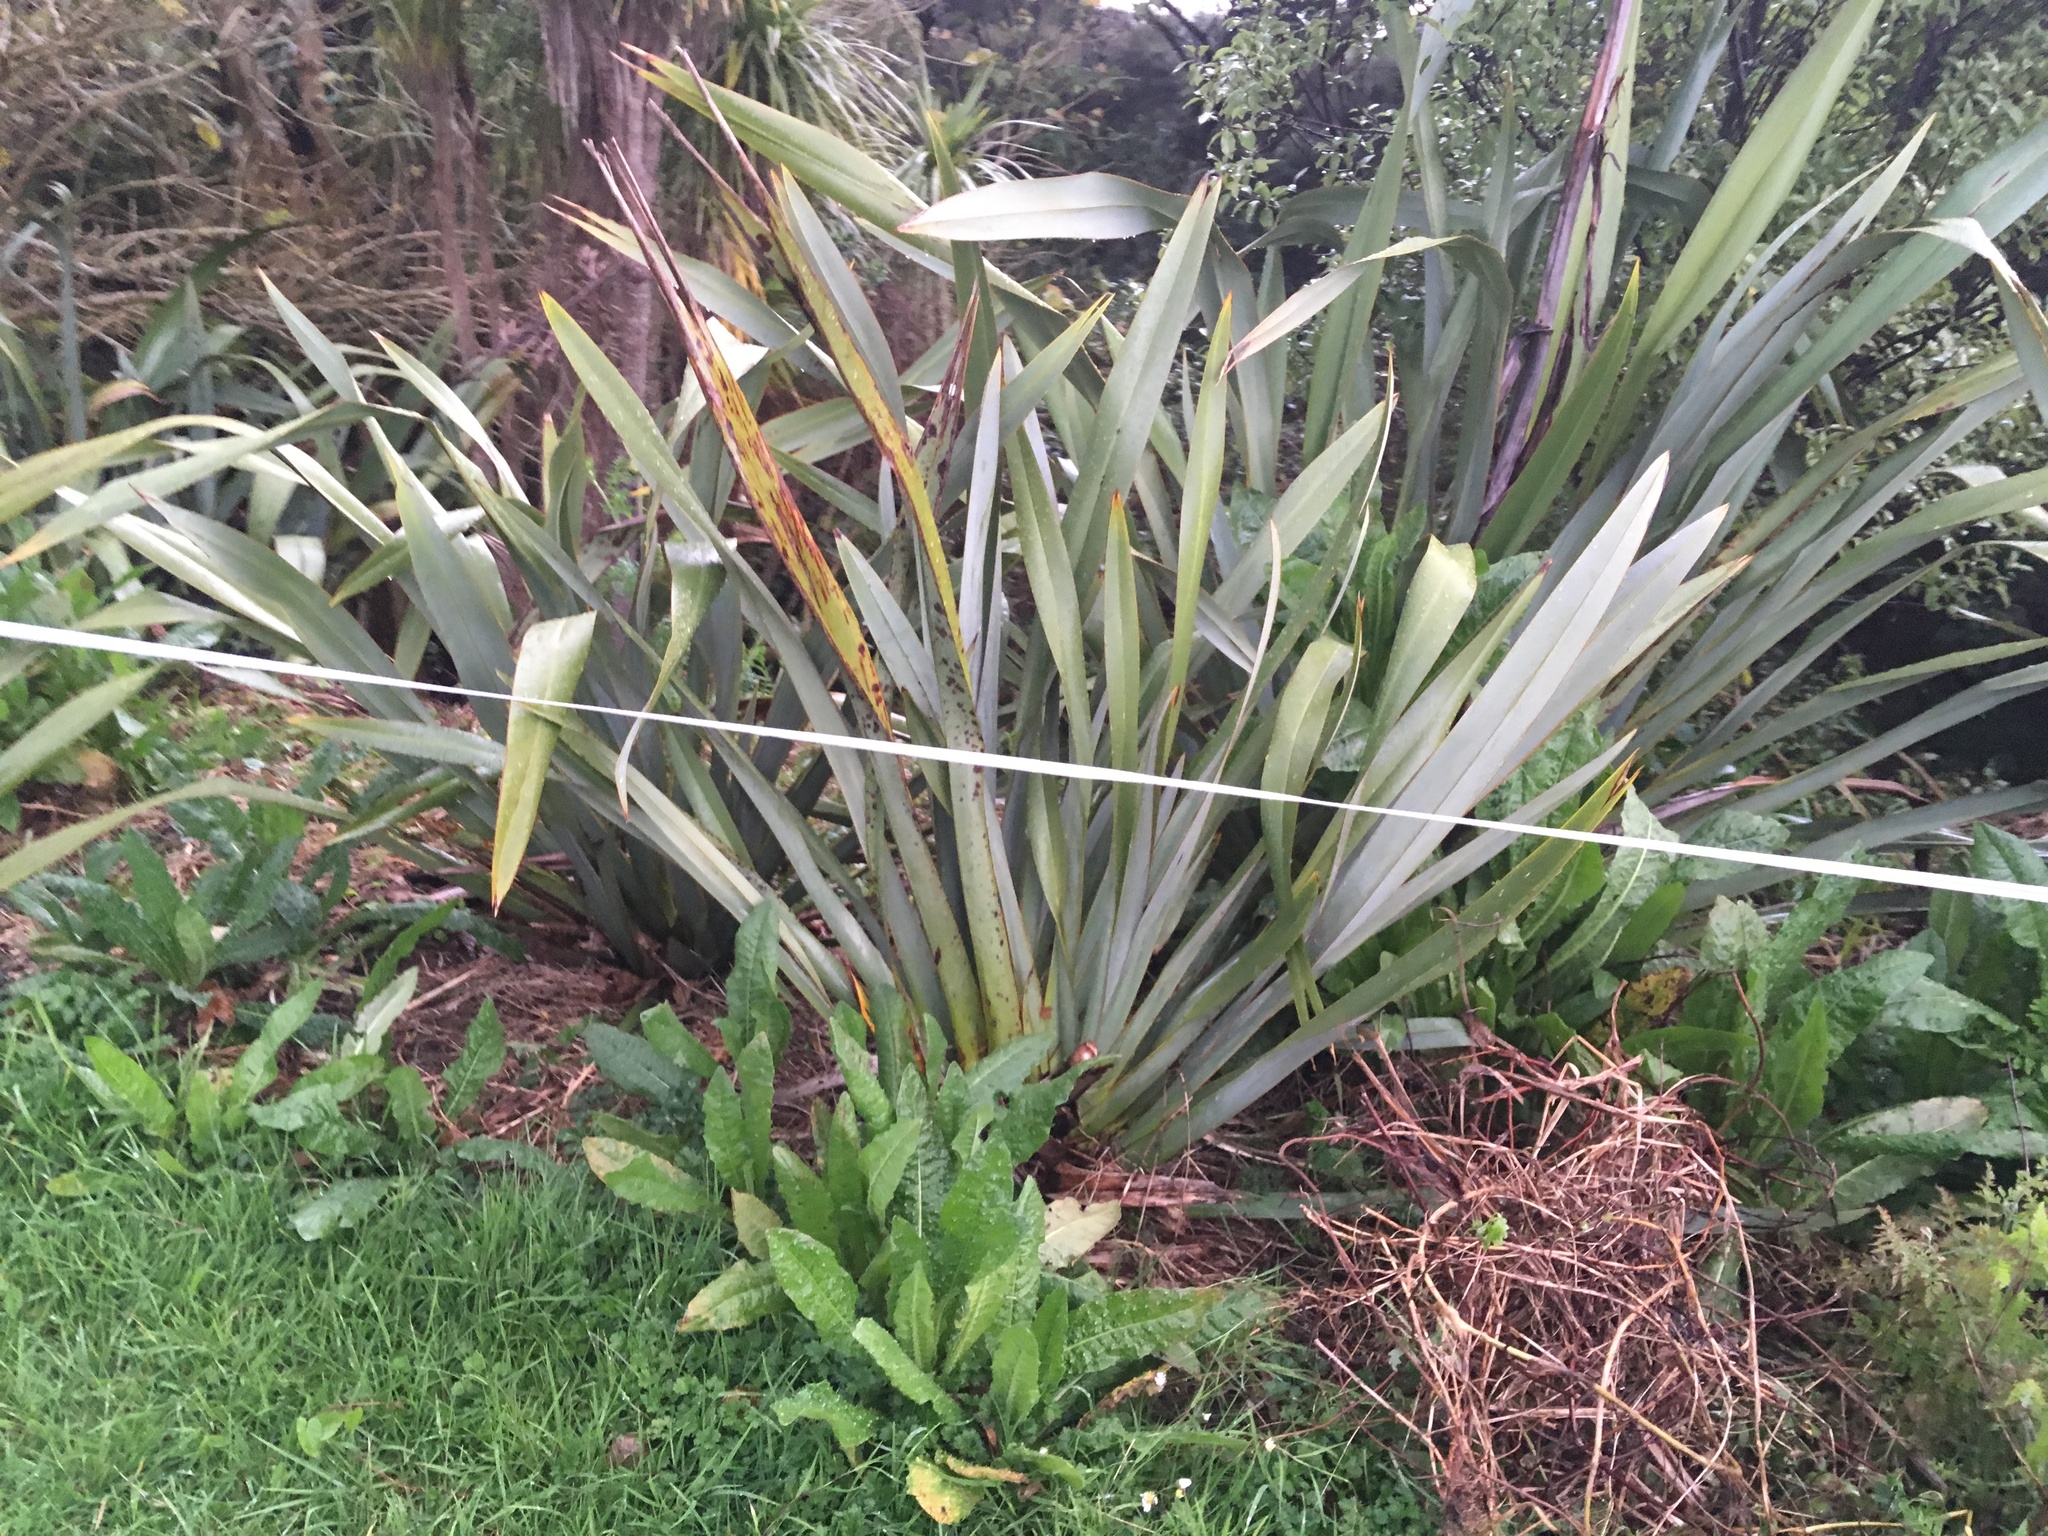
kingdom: Plantae
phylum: Tracheophyta
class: Liliopsida
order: Poales
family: Poaceae
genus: Cenchrus
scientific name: Cenchrus clandestinus
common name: Kikuyugrass
